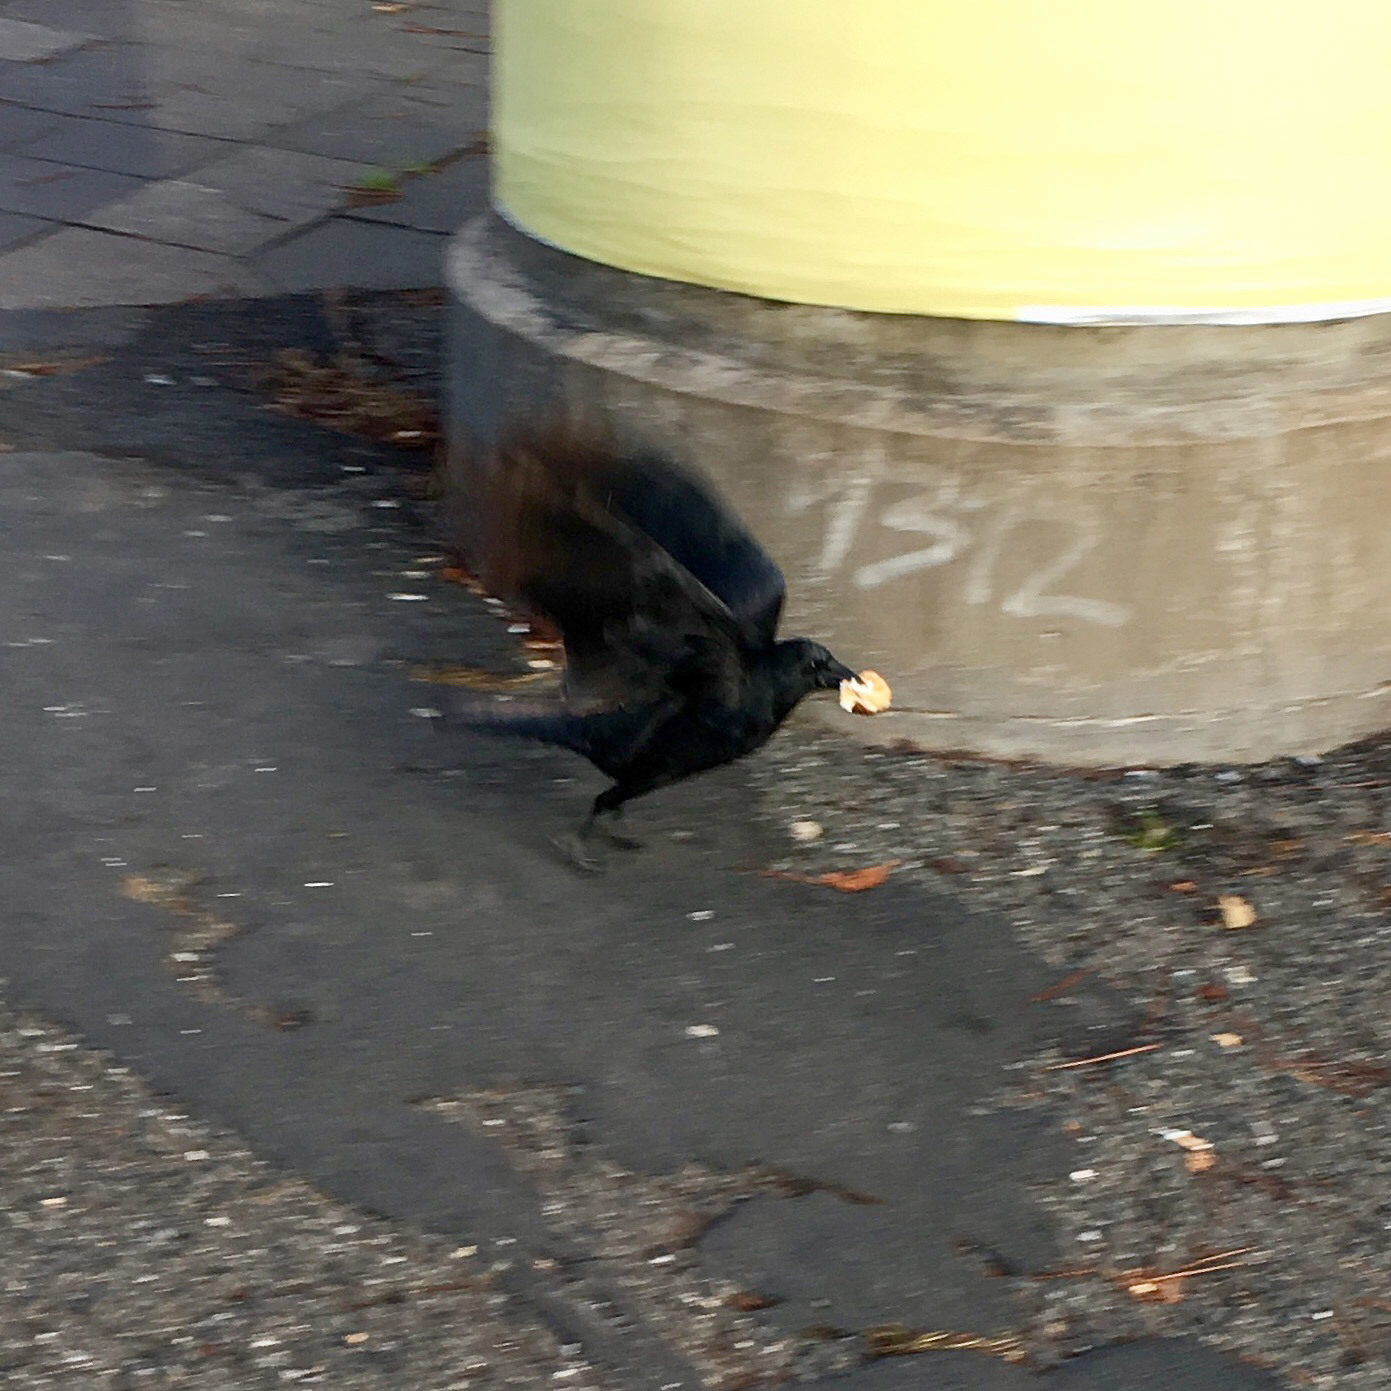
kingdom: Animalia
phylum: Chordata
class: Aves
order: Passeriformes
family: Corvidae
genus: Corvus
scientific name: Corvus corone
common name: Carrion crow
